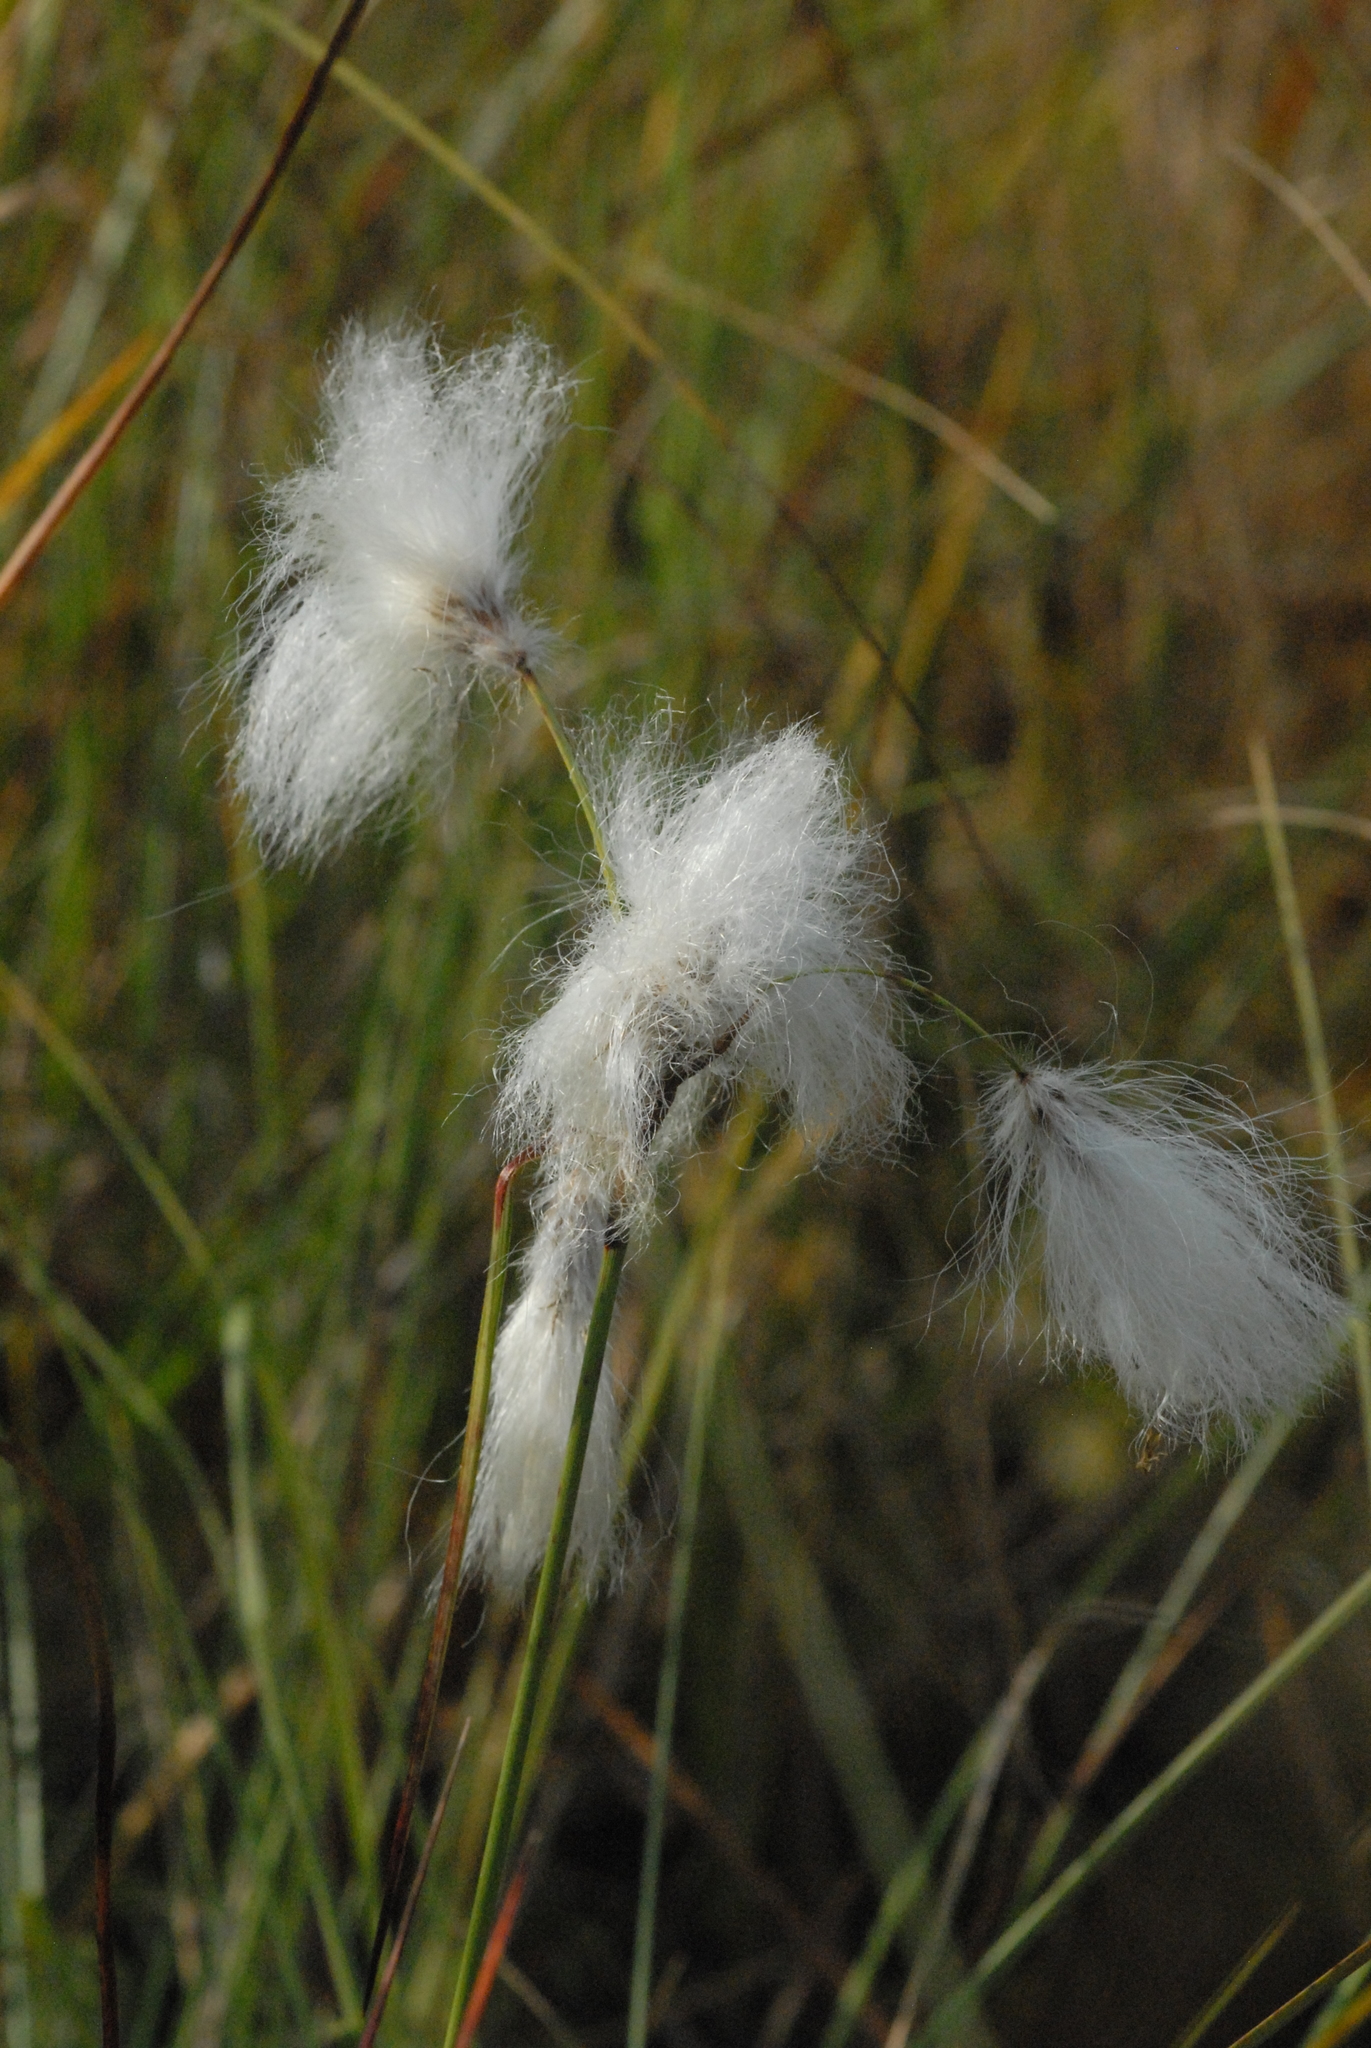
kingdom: Plantae
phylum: Tracheophyta
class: Liliopsida
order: Poales
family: Cyperaceae
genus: Eriophorum
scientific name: Eriophorum angustifolium
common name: Common cottongrass
